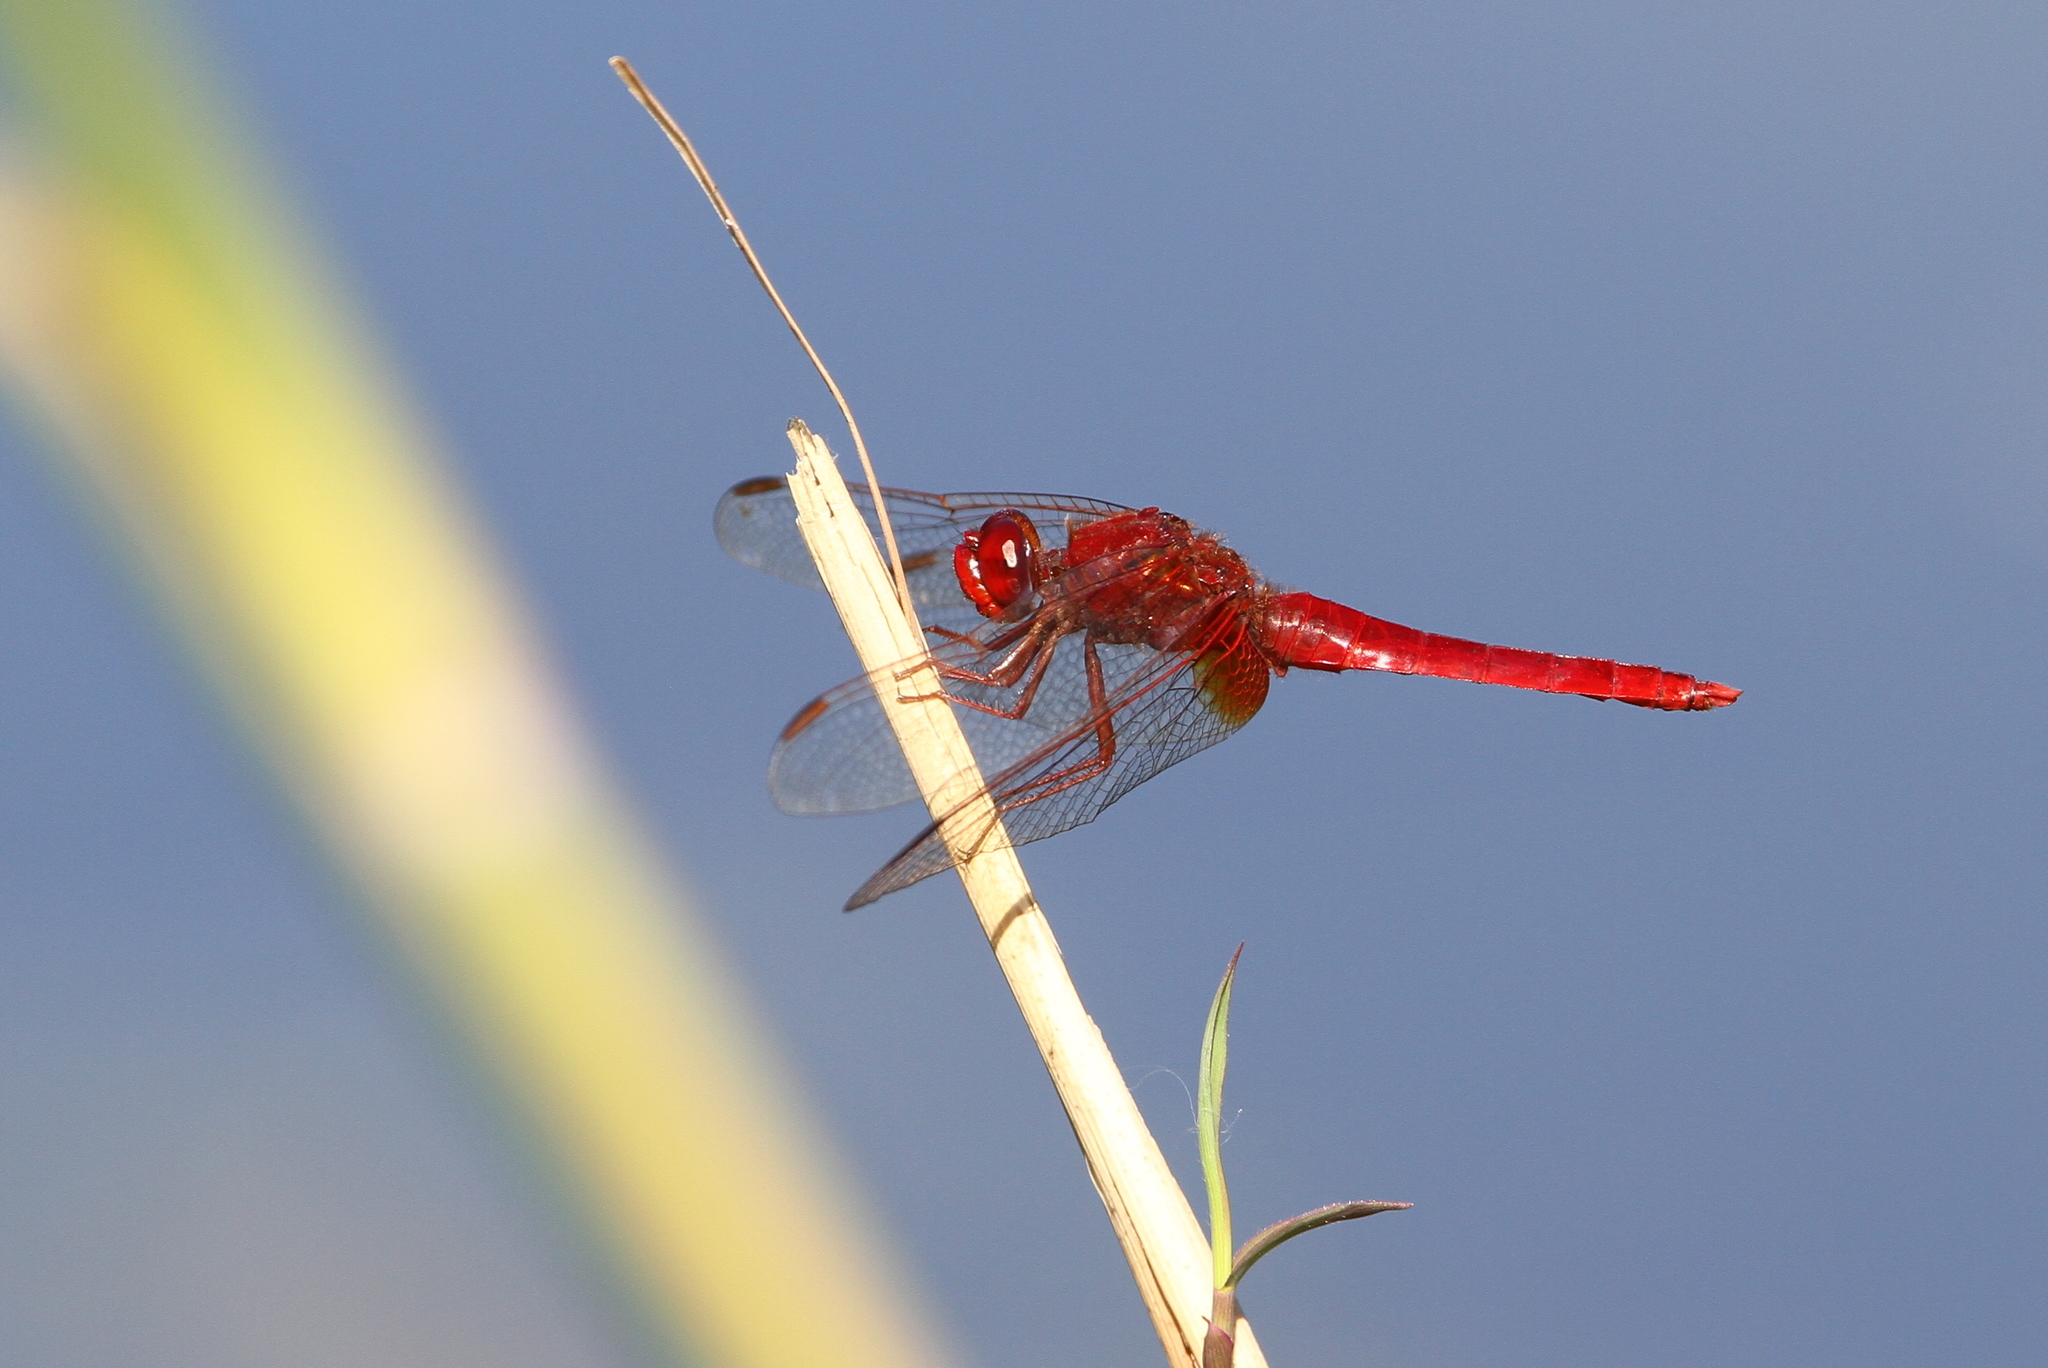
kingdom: Animalia
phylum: Arthropoda
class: Insecta
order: Odonata
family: Libellulidae
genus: Crocothemis
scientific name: Crocothemis erythraea
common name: Scarlet dragonfly
